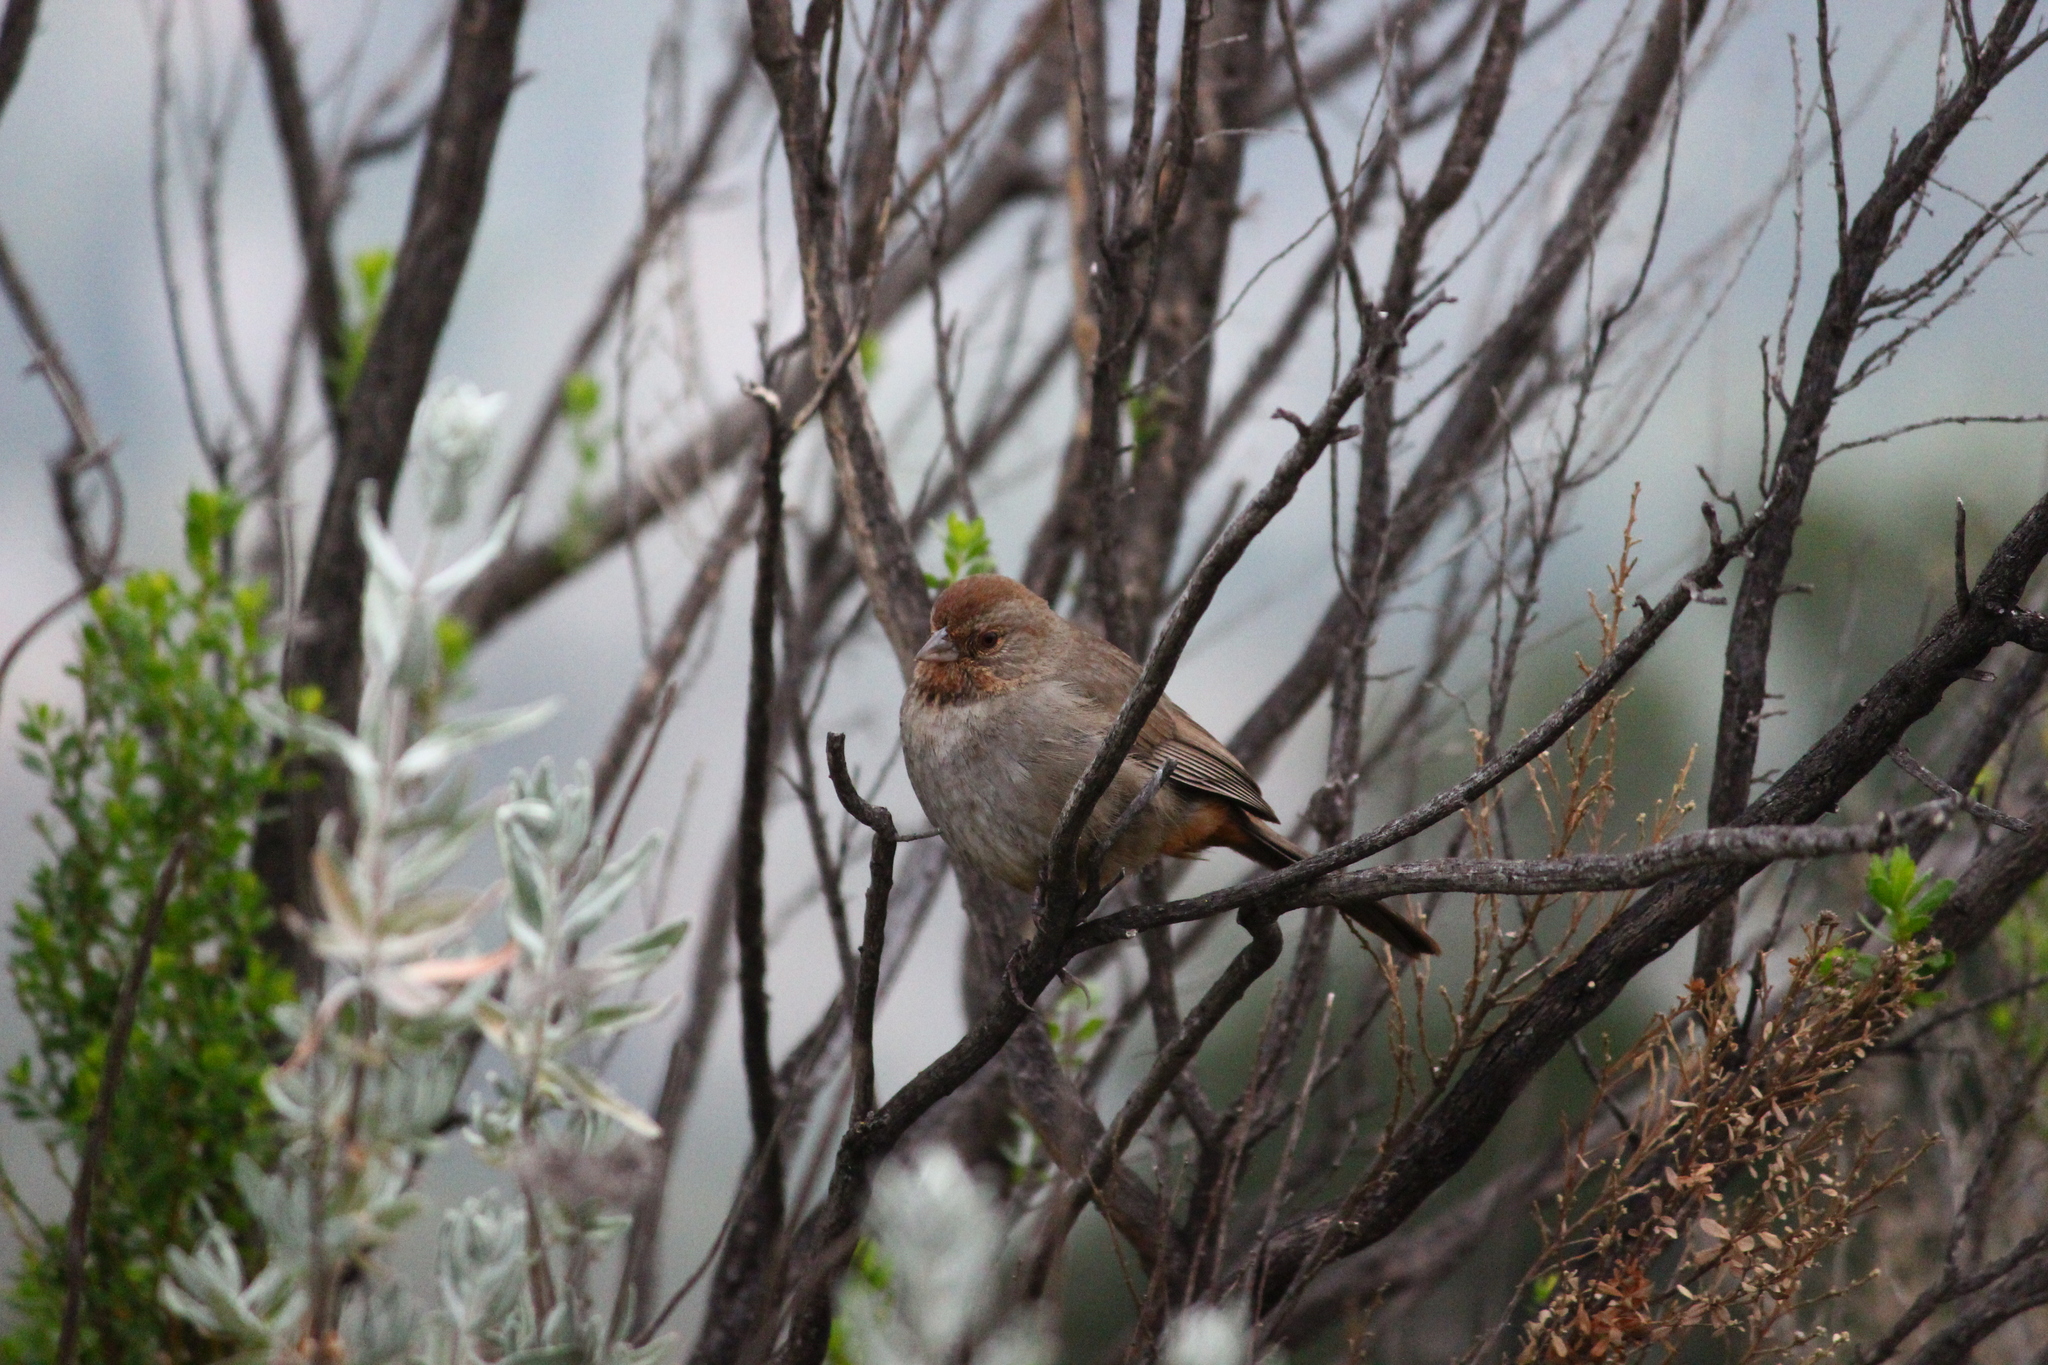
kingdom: Animalia
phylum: Chordata
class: Aves
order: Passeriformes
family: Passerellidae
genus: Melozone
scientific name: Melozone crissalis
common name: California towhee
